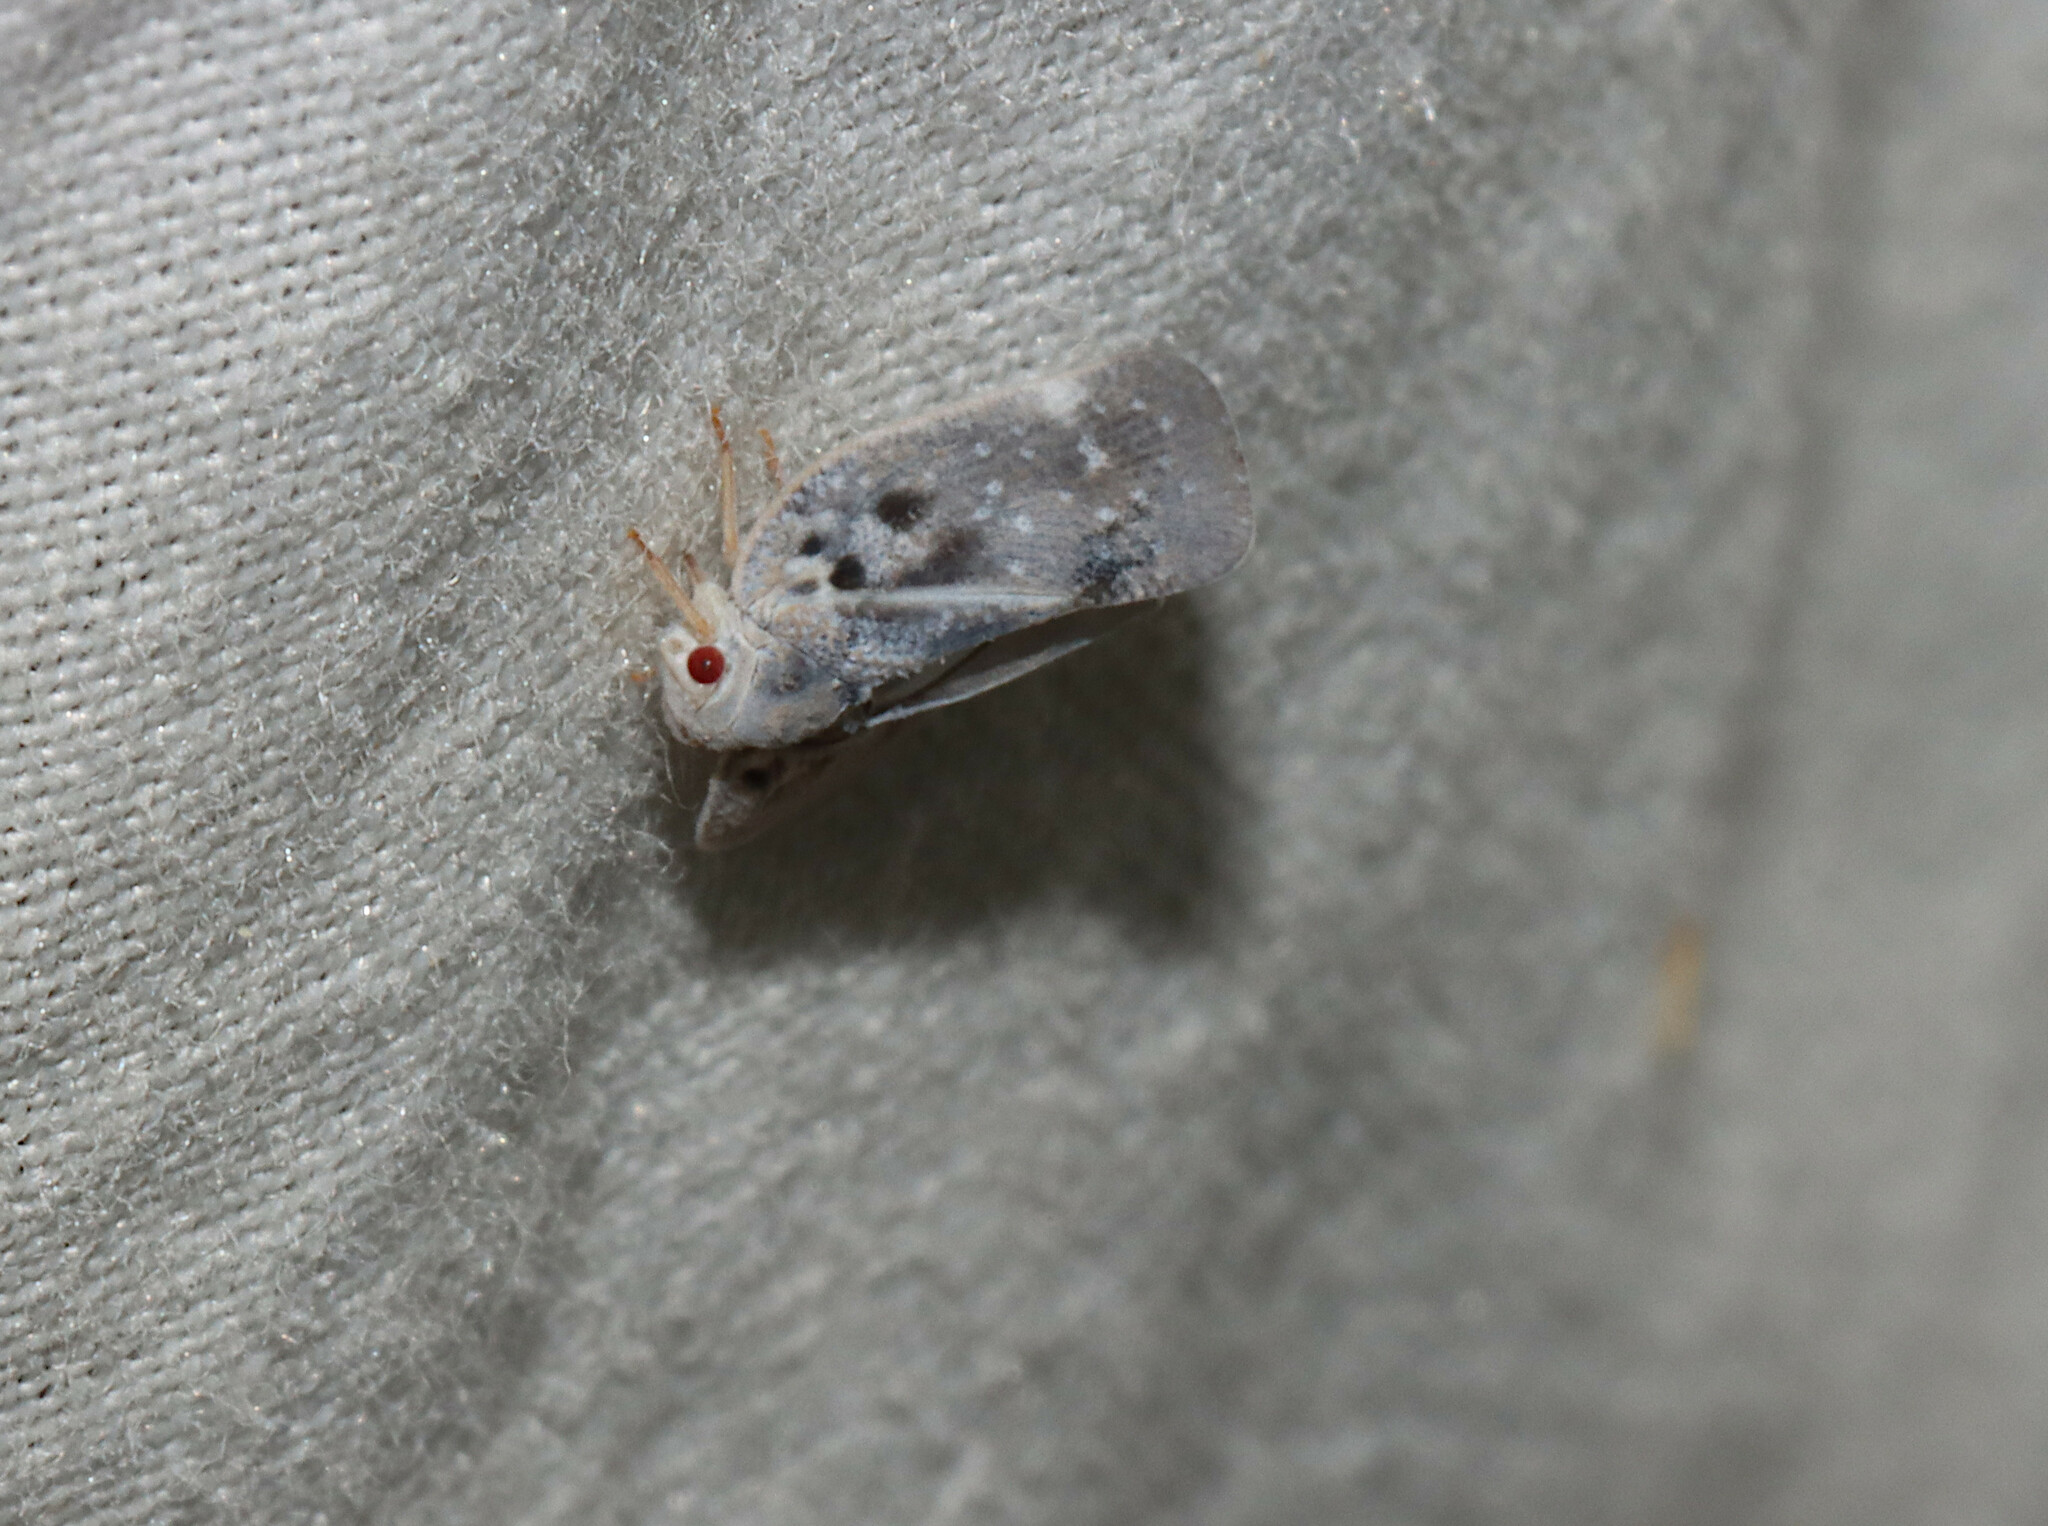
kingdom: Animalia
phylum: Arthropoda
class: Insecta
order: Hemiptera
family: Flatidae
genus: Metcalfa
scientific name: Metcalfa pruinosa
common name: Citrus flatid planthopper
